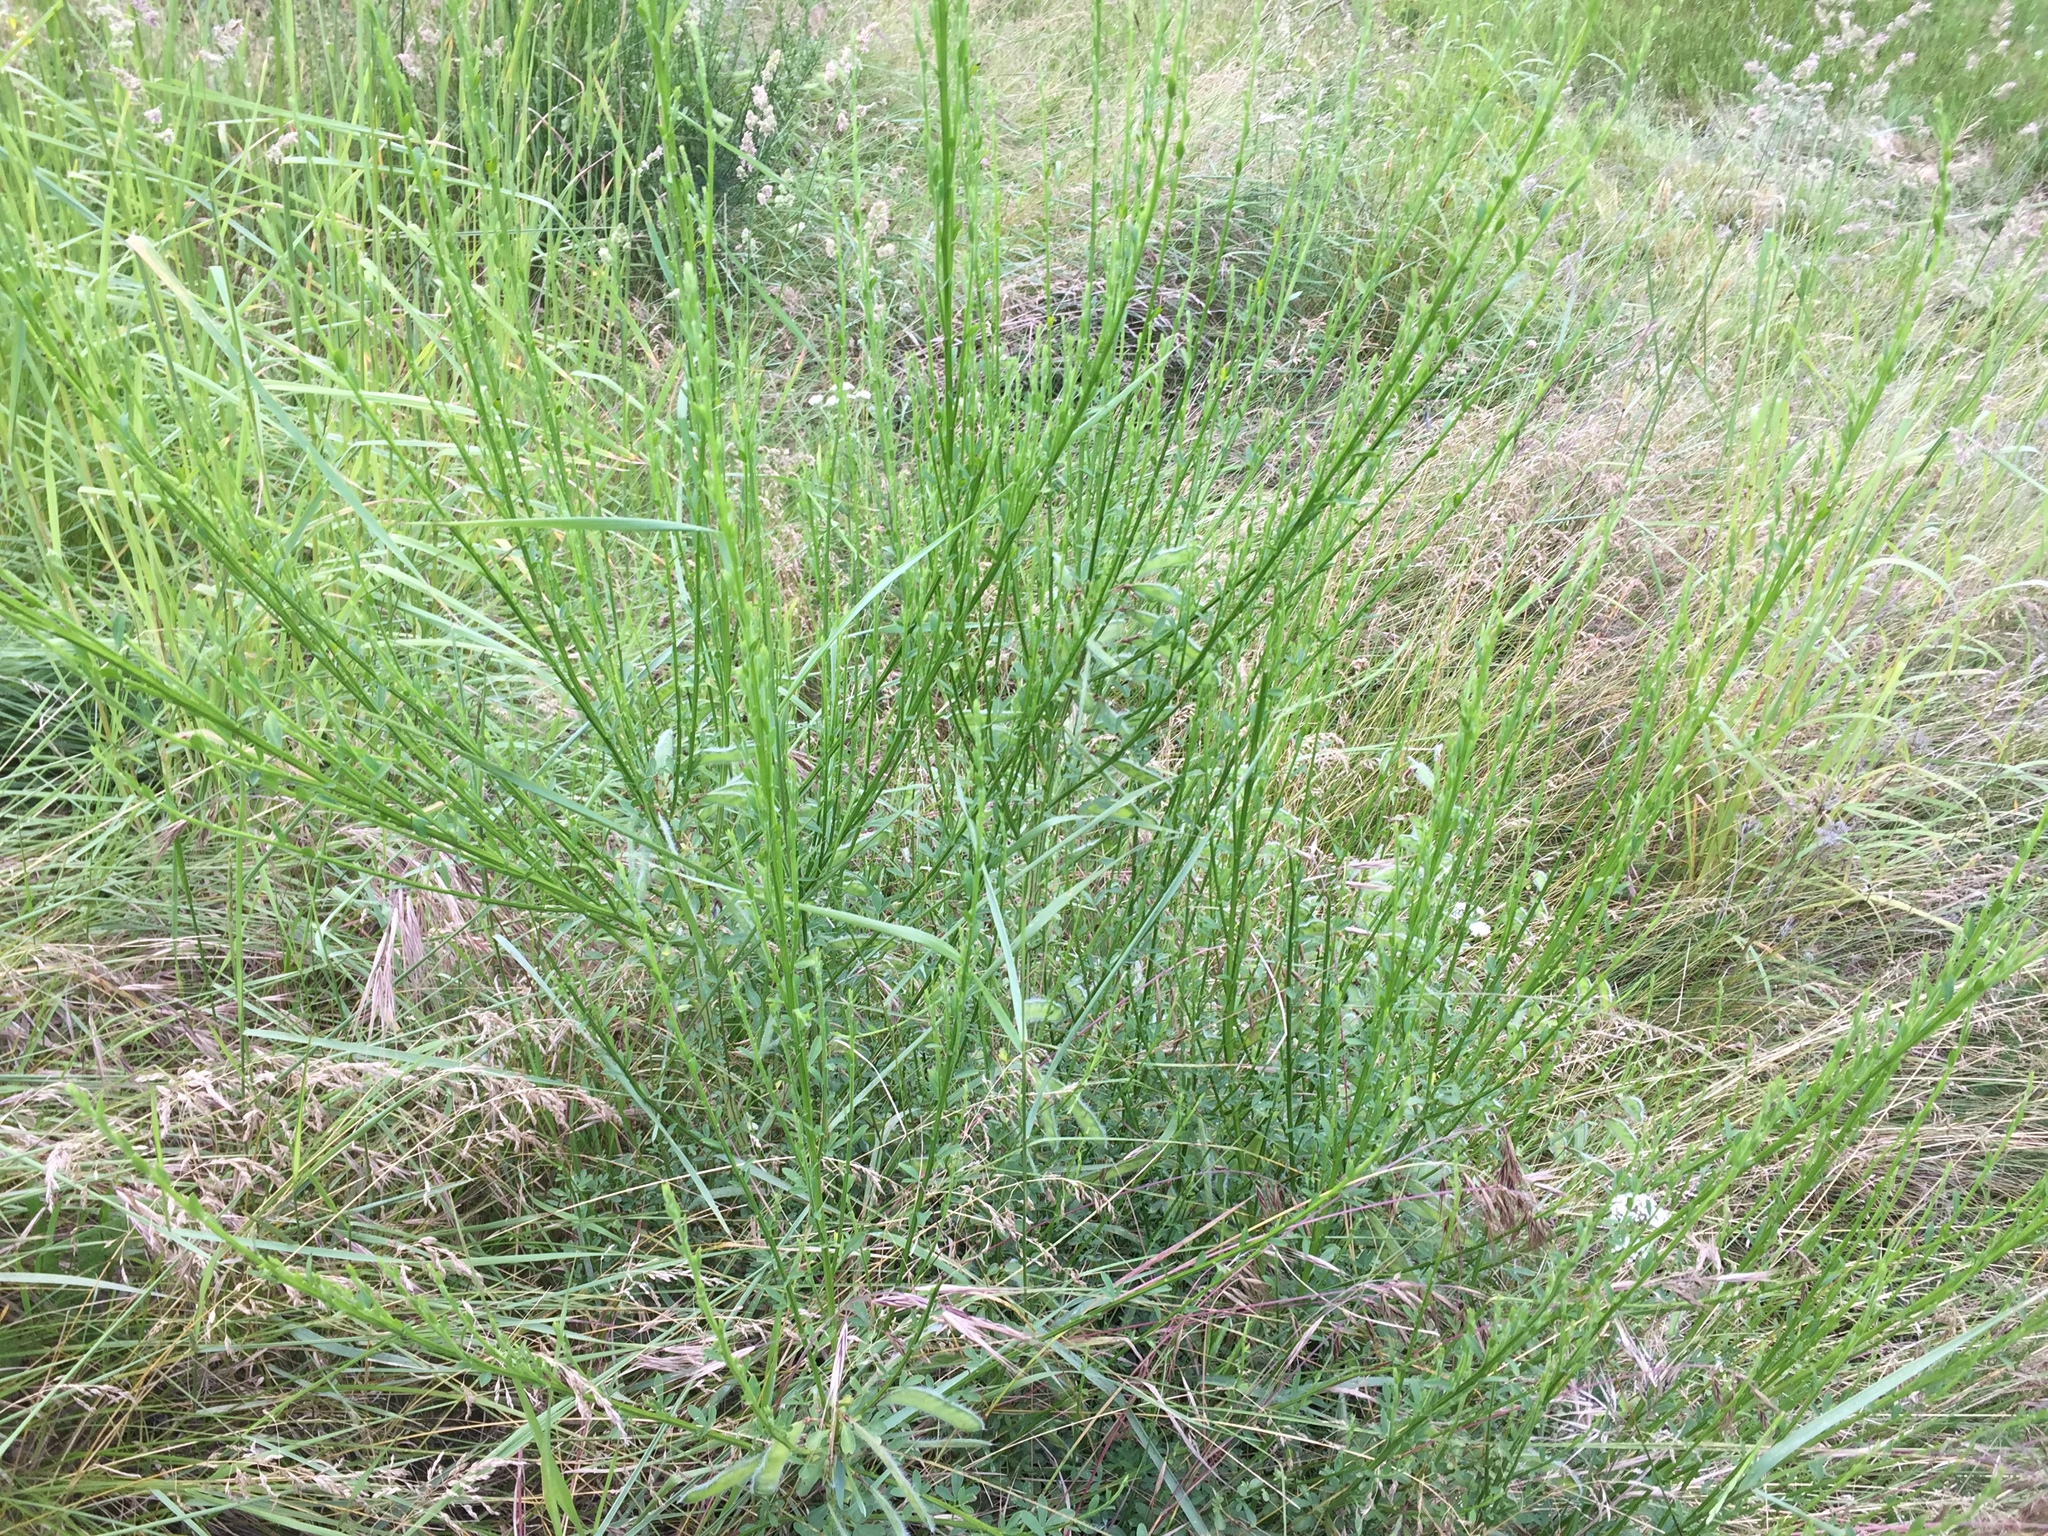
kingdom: Plantae
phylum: Tracheophyta
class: Magnoliopsida
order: Fabales
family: Fabaceae
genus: Cytisus
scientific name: Cytisus scoparius
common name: Scotch broom
